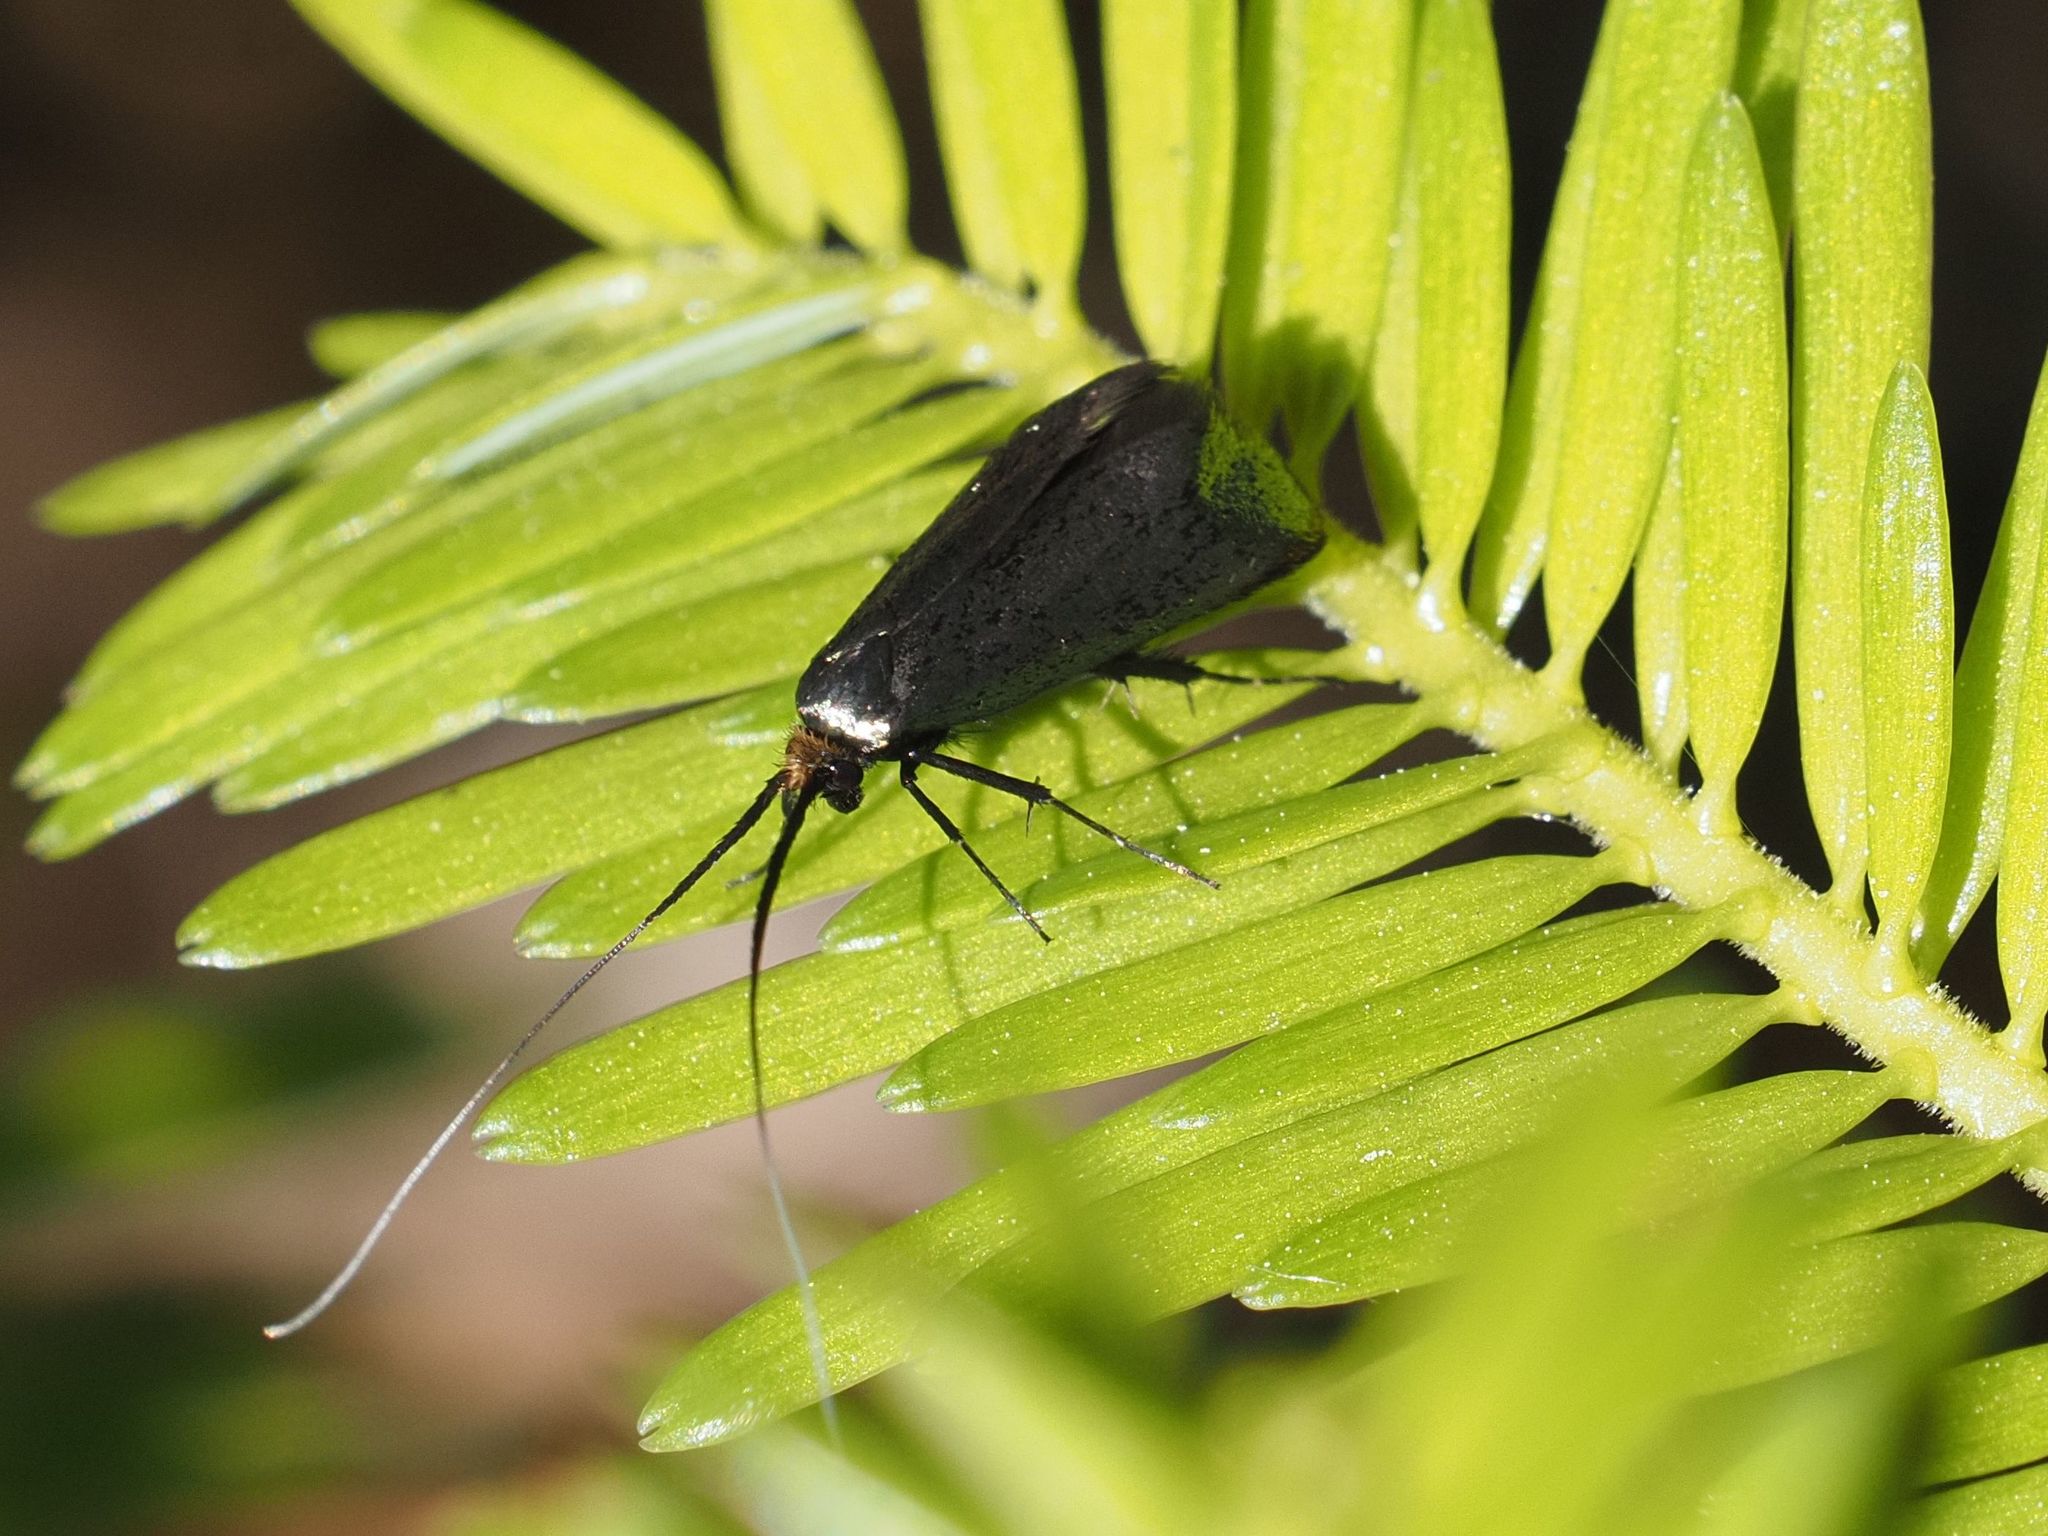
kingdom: Animalia
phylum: Arthropoda
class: Insecta
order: Lepidoptera
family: Adelidae
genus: Adela
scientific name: Adela viridella
